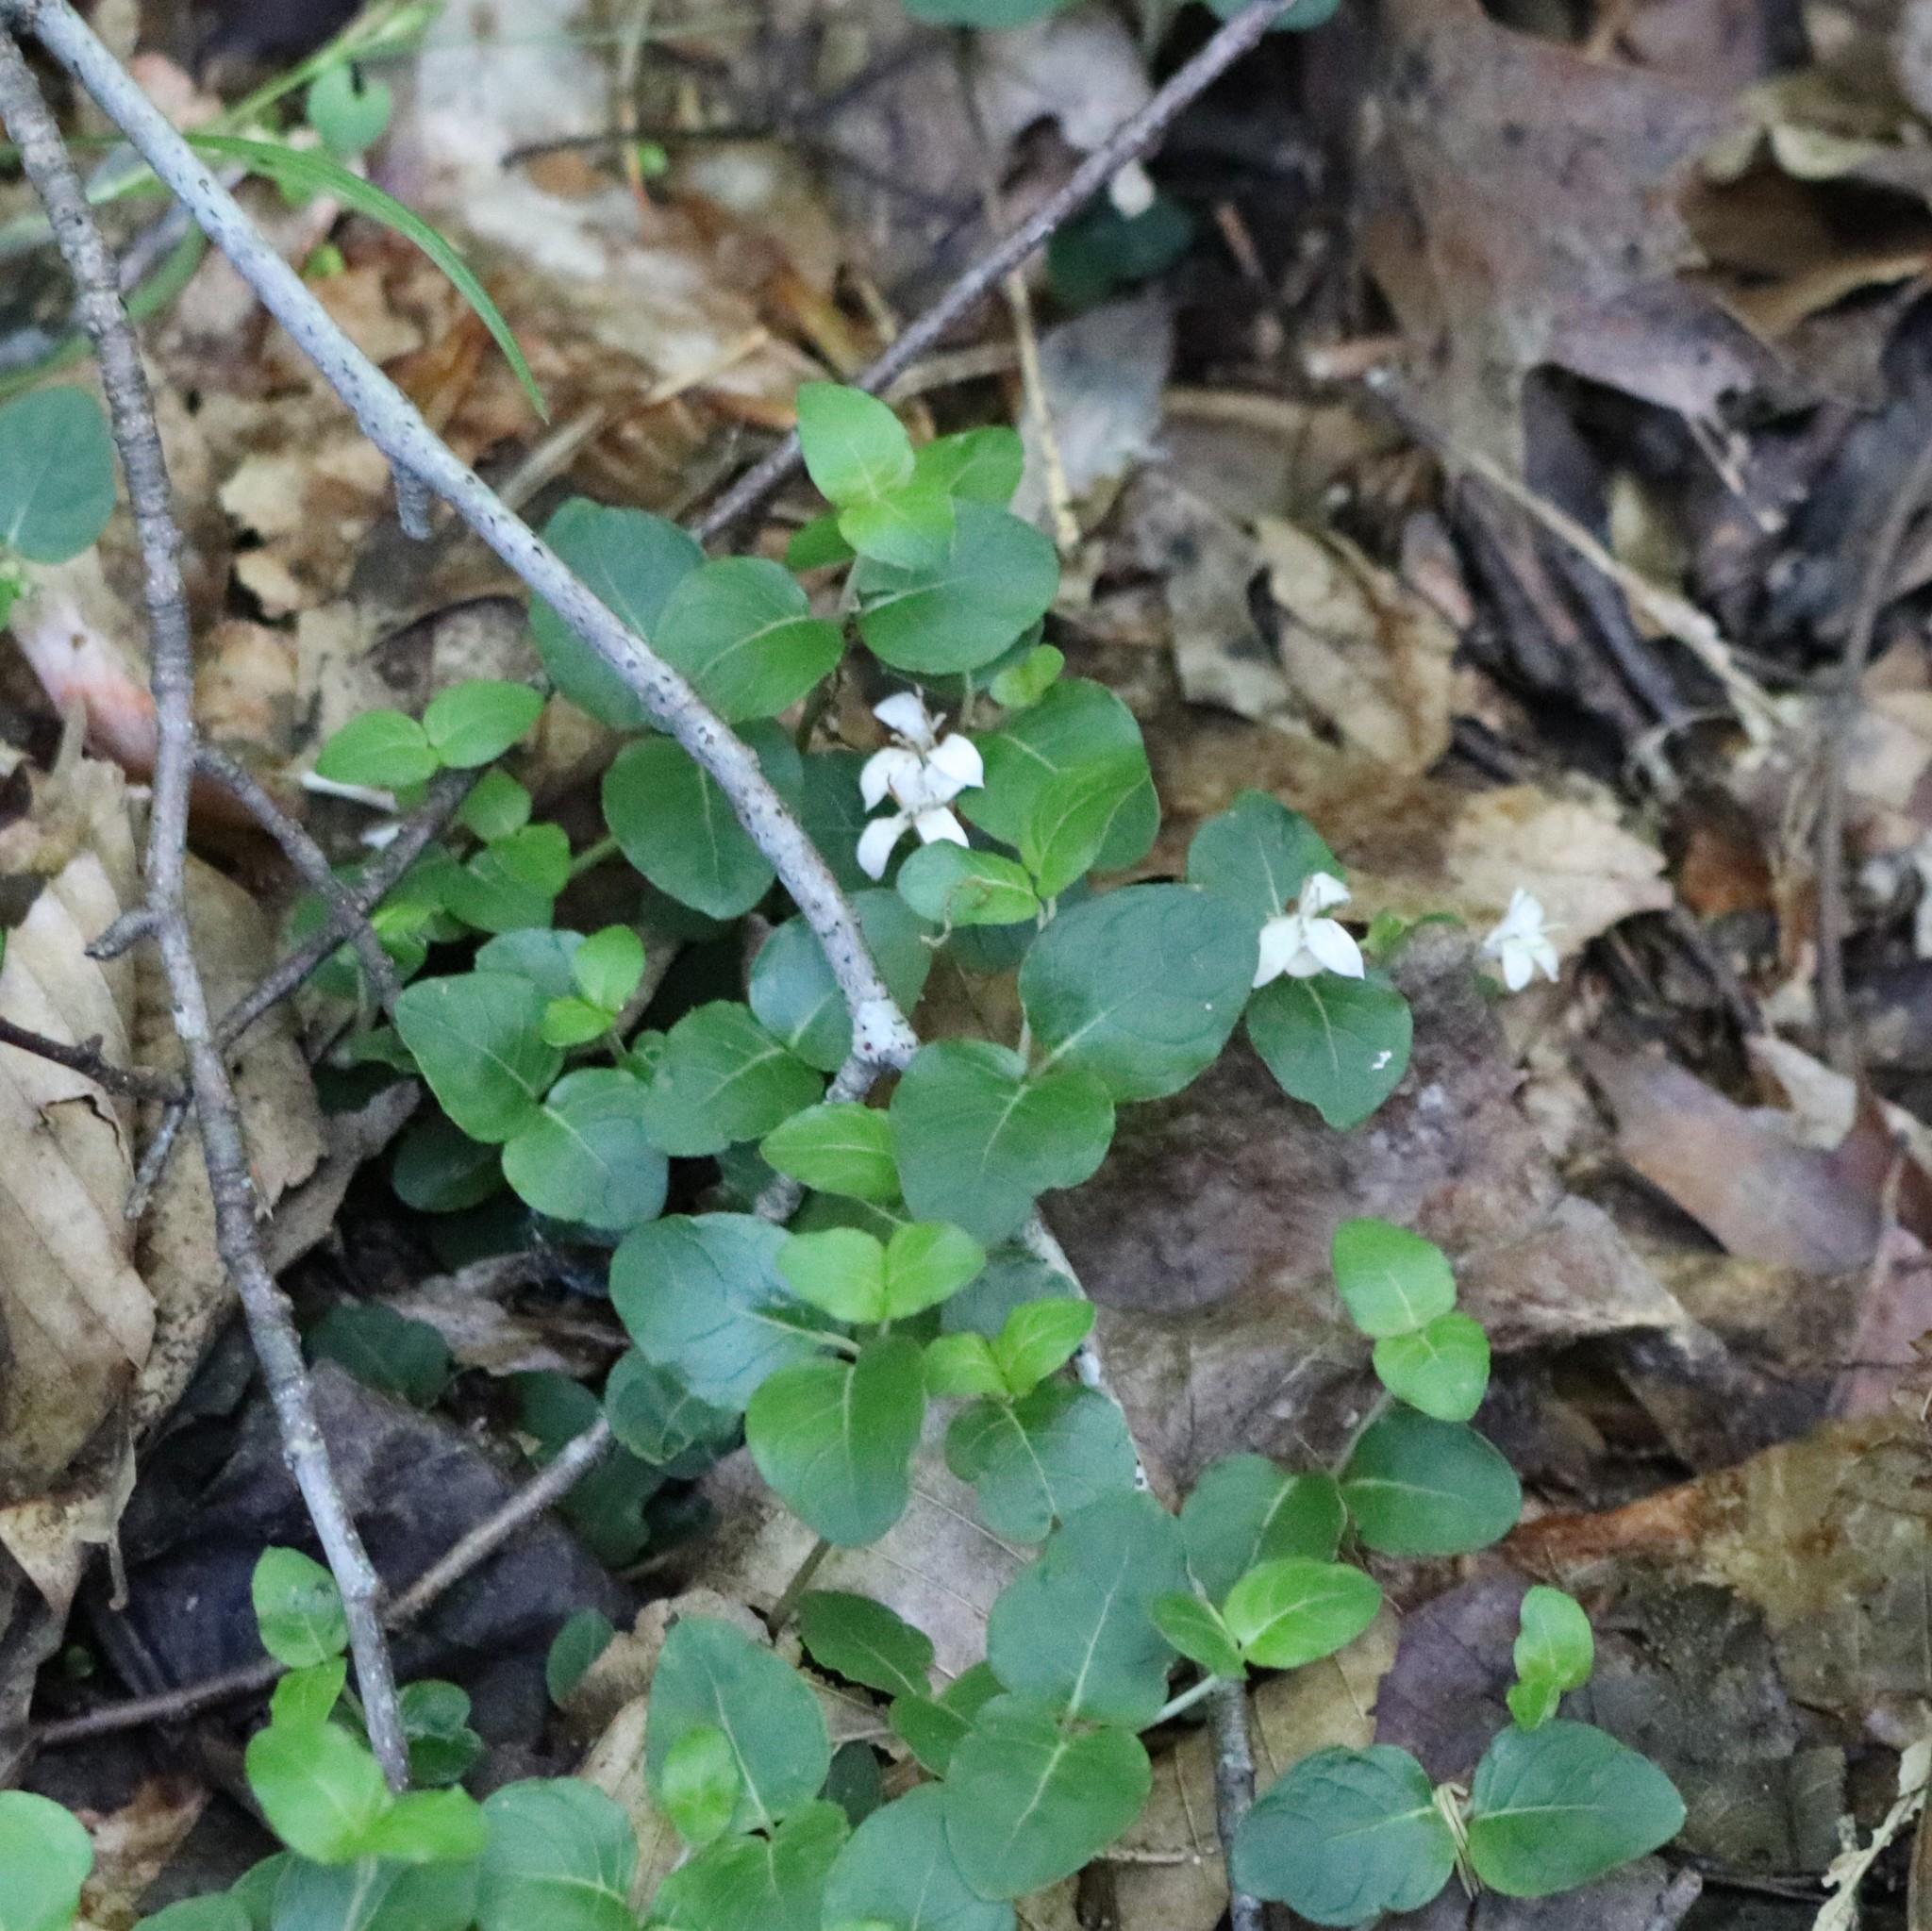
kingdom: Plantae
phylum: Tracheophyta
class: Magnoliopsida
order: Gentianales
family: Rubiaceae
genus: Mitchella
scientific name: Mitchella repens
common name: Partridge-berry
